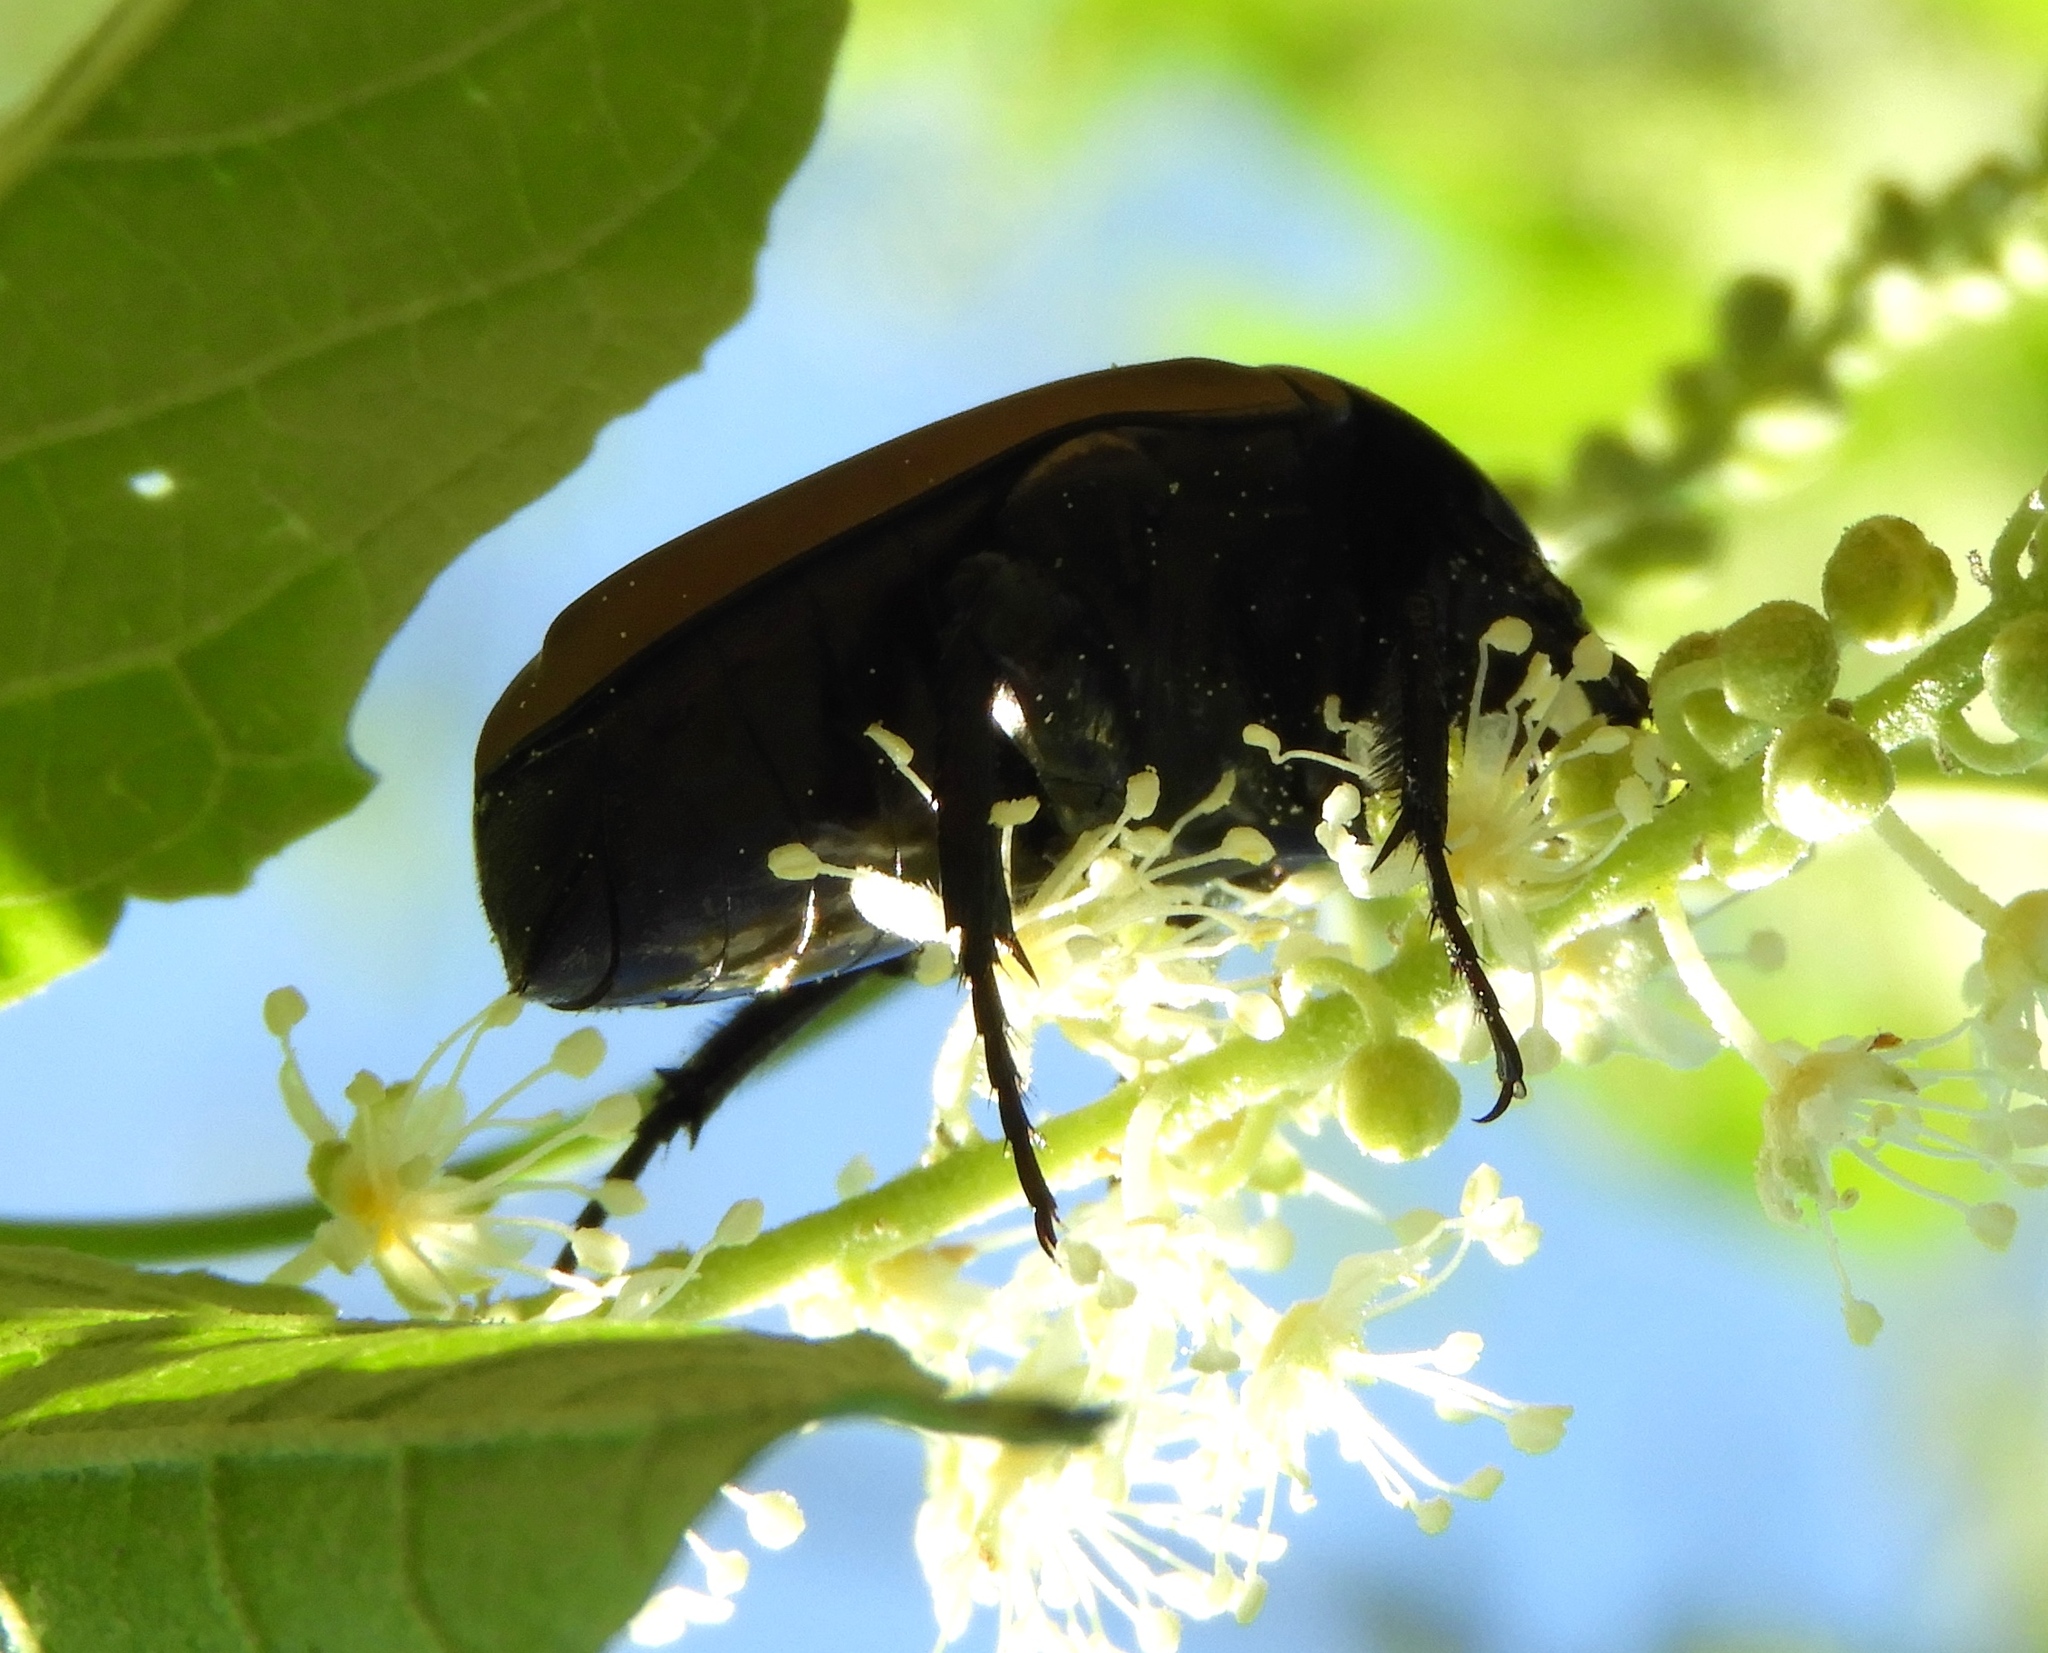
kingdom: Animalia
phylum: Arthropoda
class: Insecta
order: Coleoptera
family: Scarabaeidae
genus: Hologymnetis
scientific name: Hologymnetis cinerea
